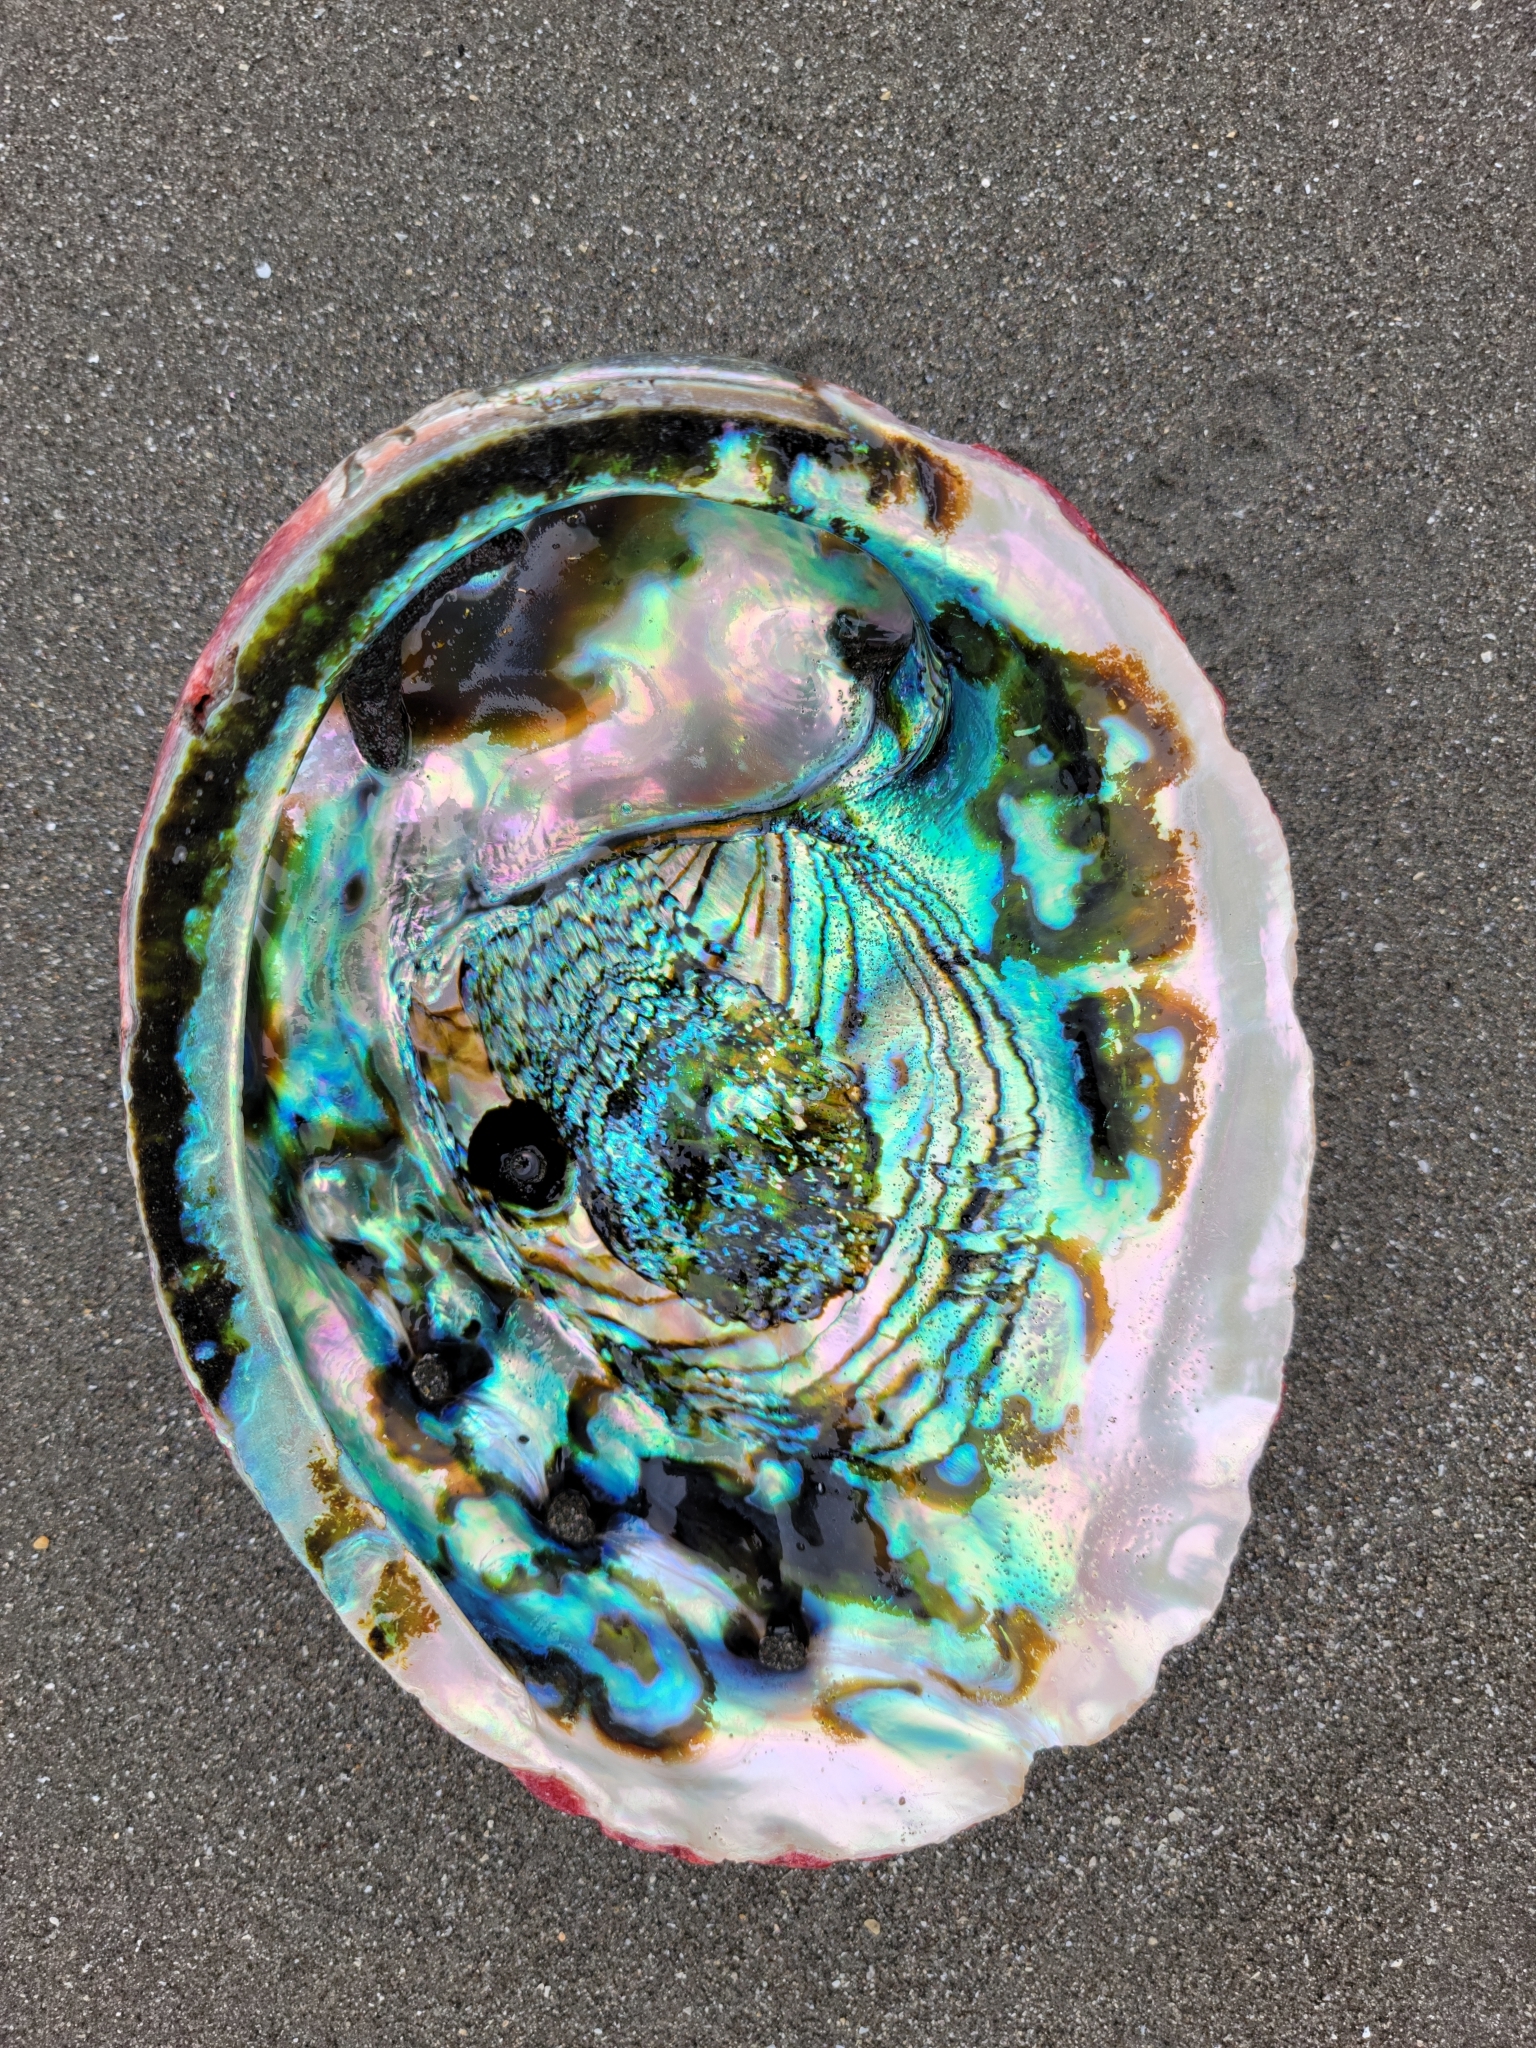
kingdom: Animalia
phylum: Mollusca
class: Gastropoda
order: Lepetellida
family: Haliotidae
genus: Haliotis
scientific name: Haliotis rufescens
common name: Red abalone
